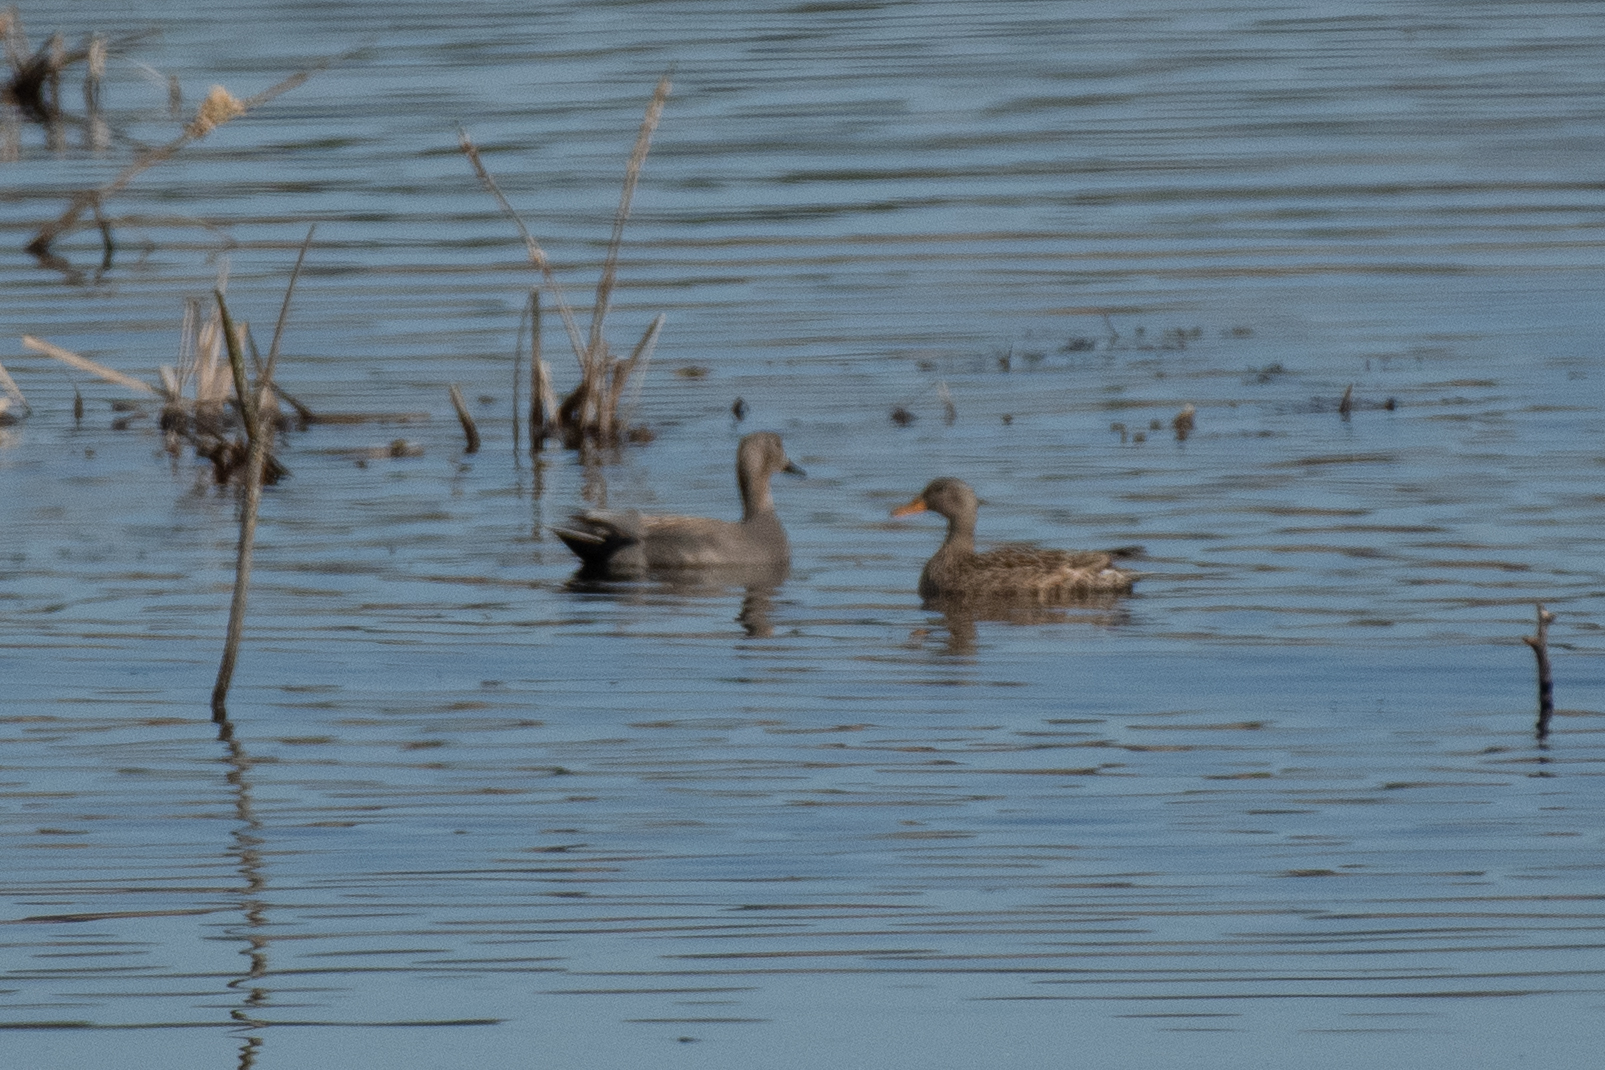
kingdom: Animalia
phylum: Chordata
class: Aves
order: Anseriformes
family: Anatidae
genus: Mareca
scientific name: Mareca strepera
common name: Gadwall
